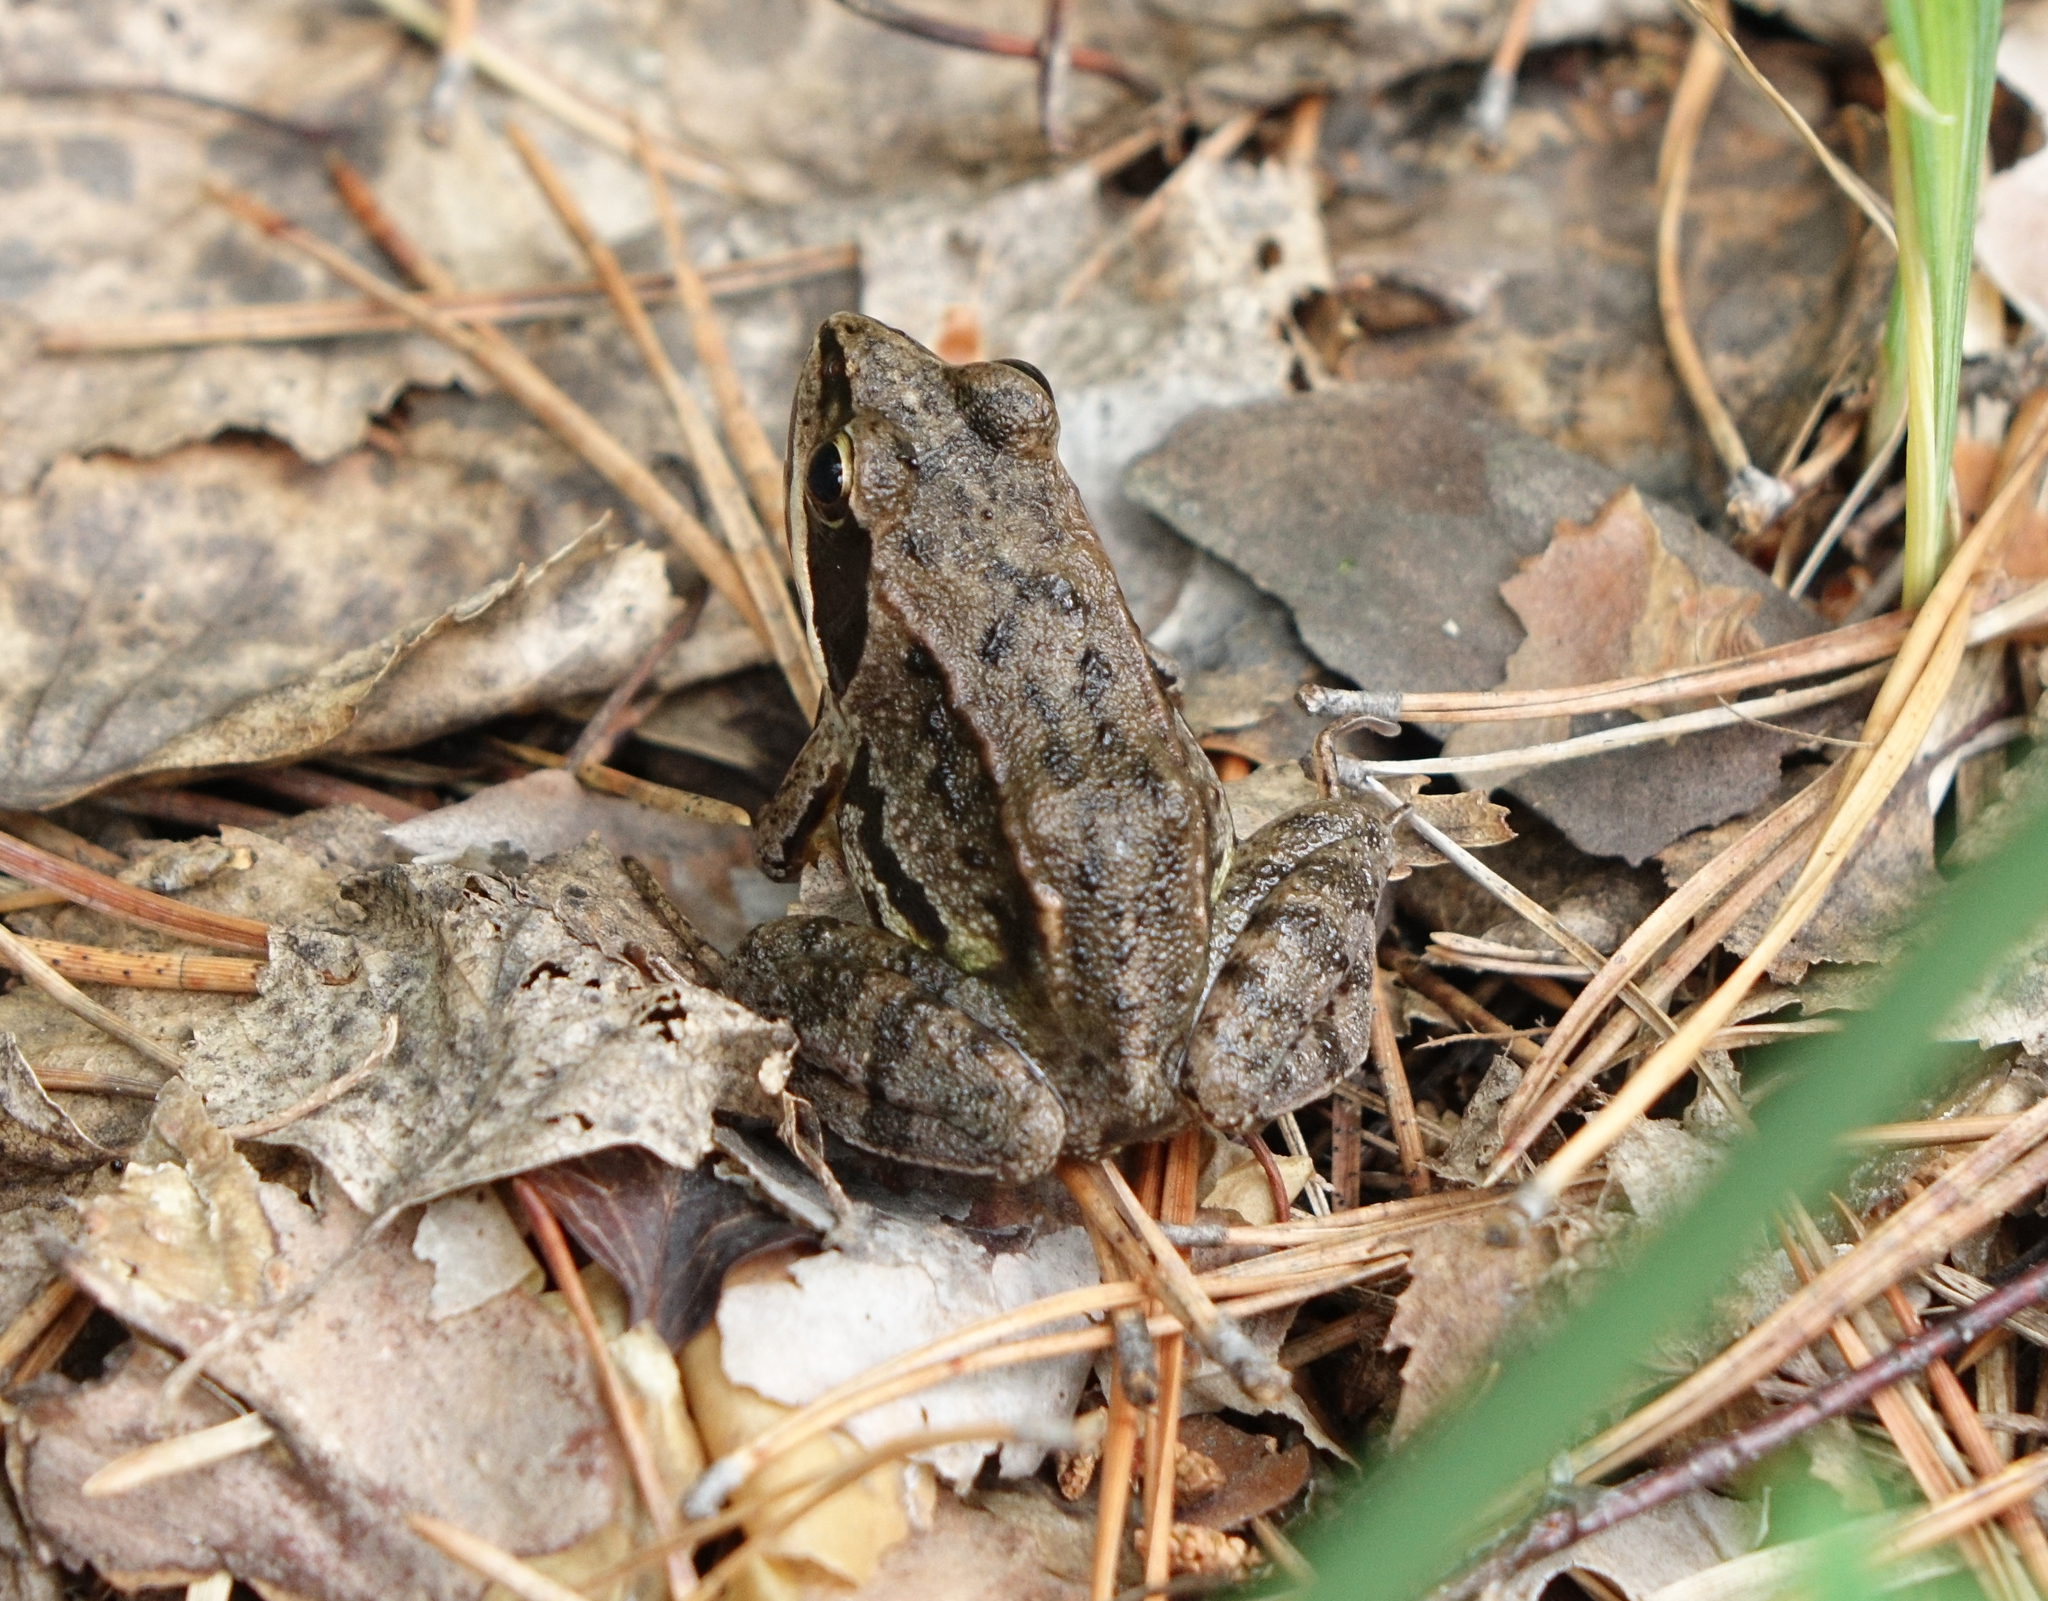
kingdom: Animalia
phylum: Chordata
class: Amphibia
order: Anura
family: Ranidae
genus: Rana
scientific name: Rana arvalis
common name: Moor frog
